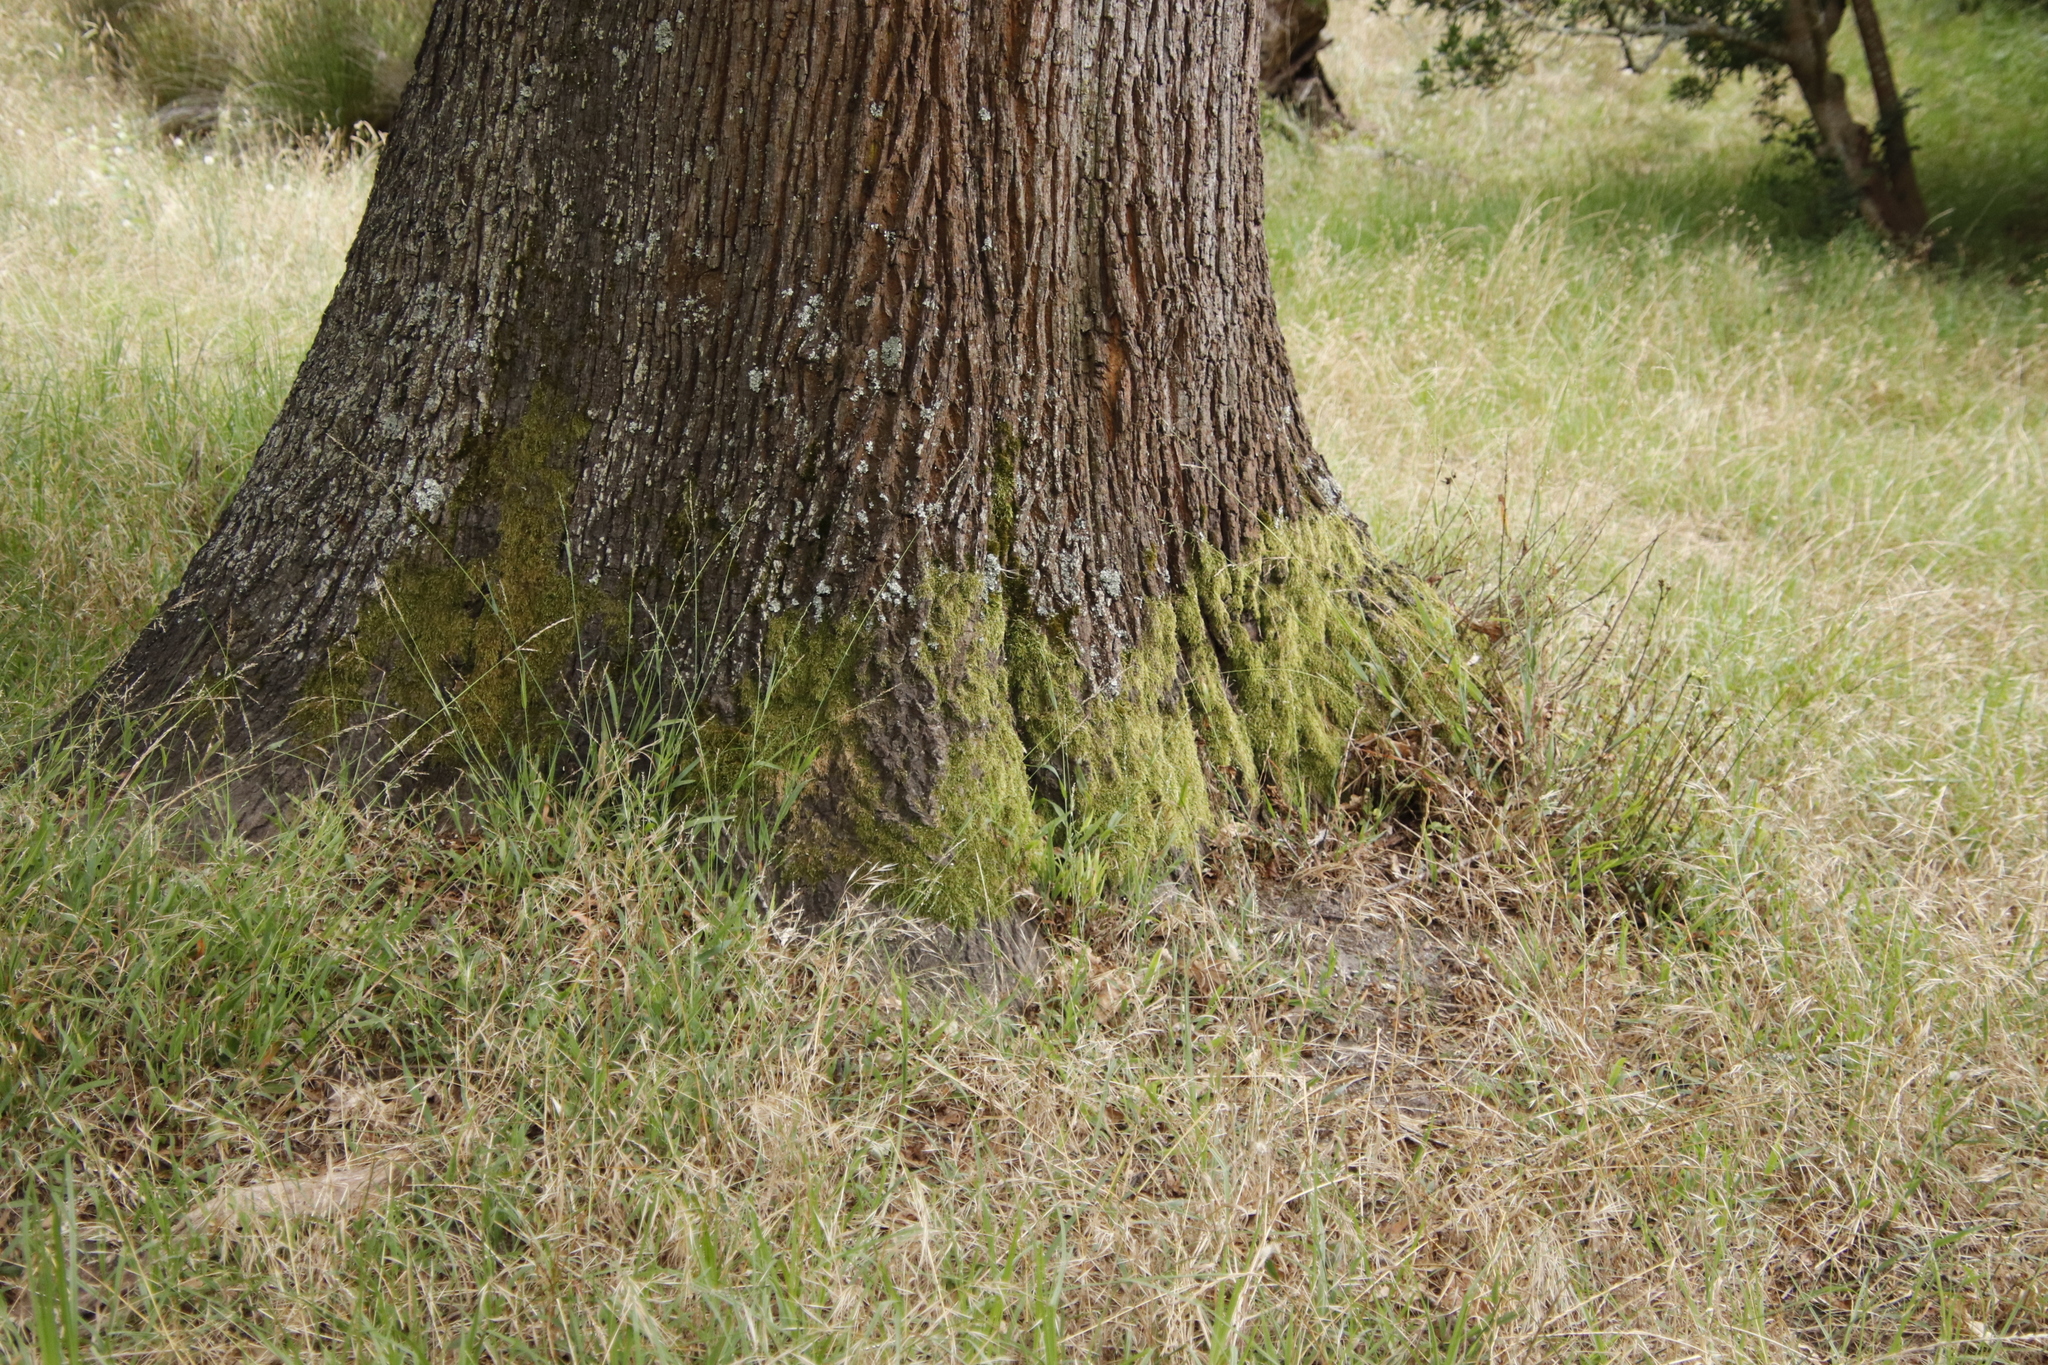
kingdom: Plantae
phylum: Bryophyta
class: Bryopsida
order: Hypnales
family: Hypnaceae
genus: Hypnum
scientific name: Hypnum cupressiforme
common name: Cypress-leaved plait-moss
